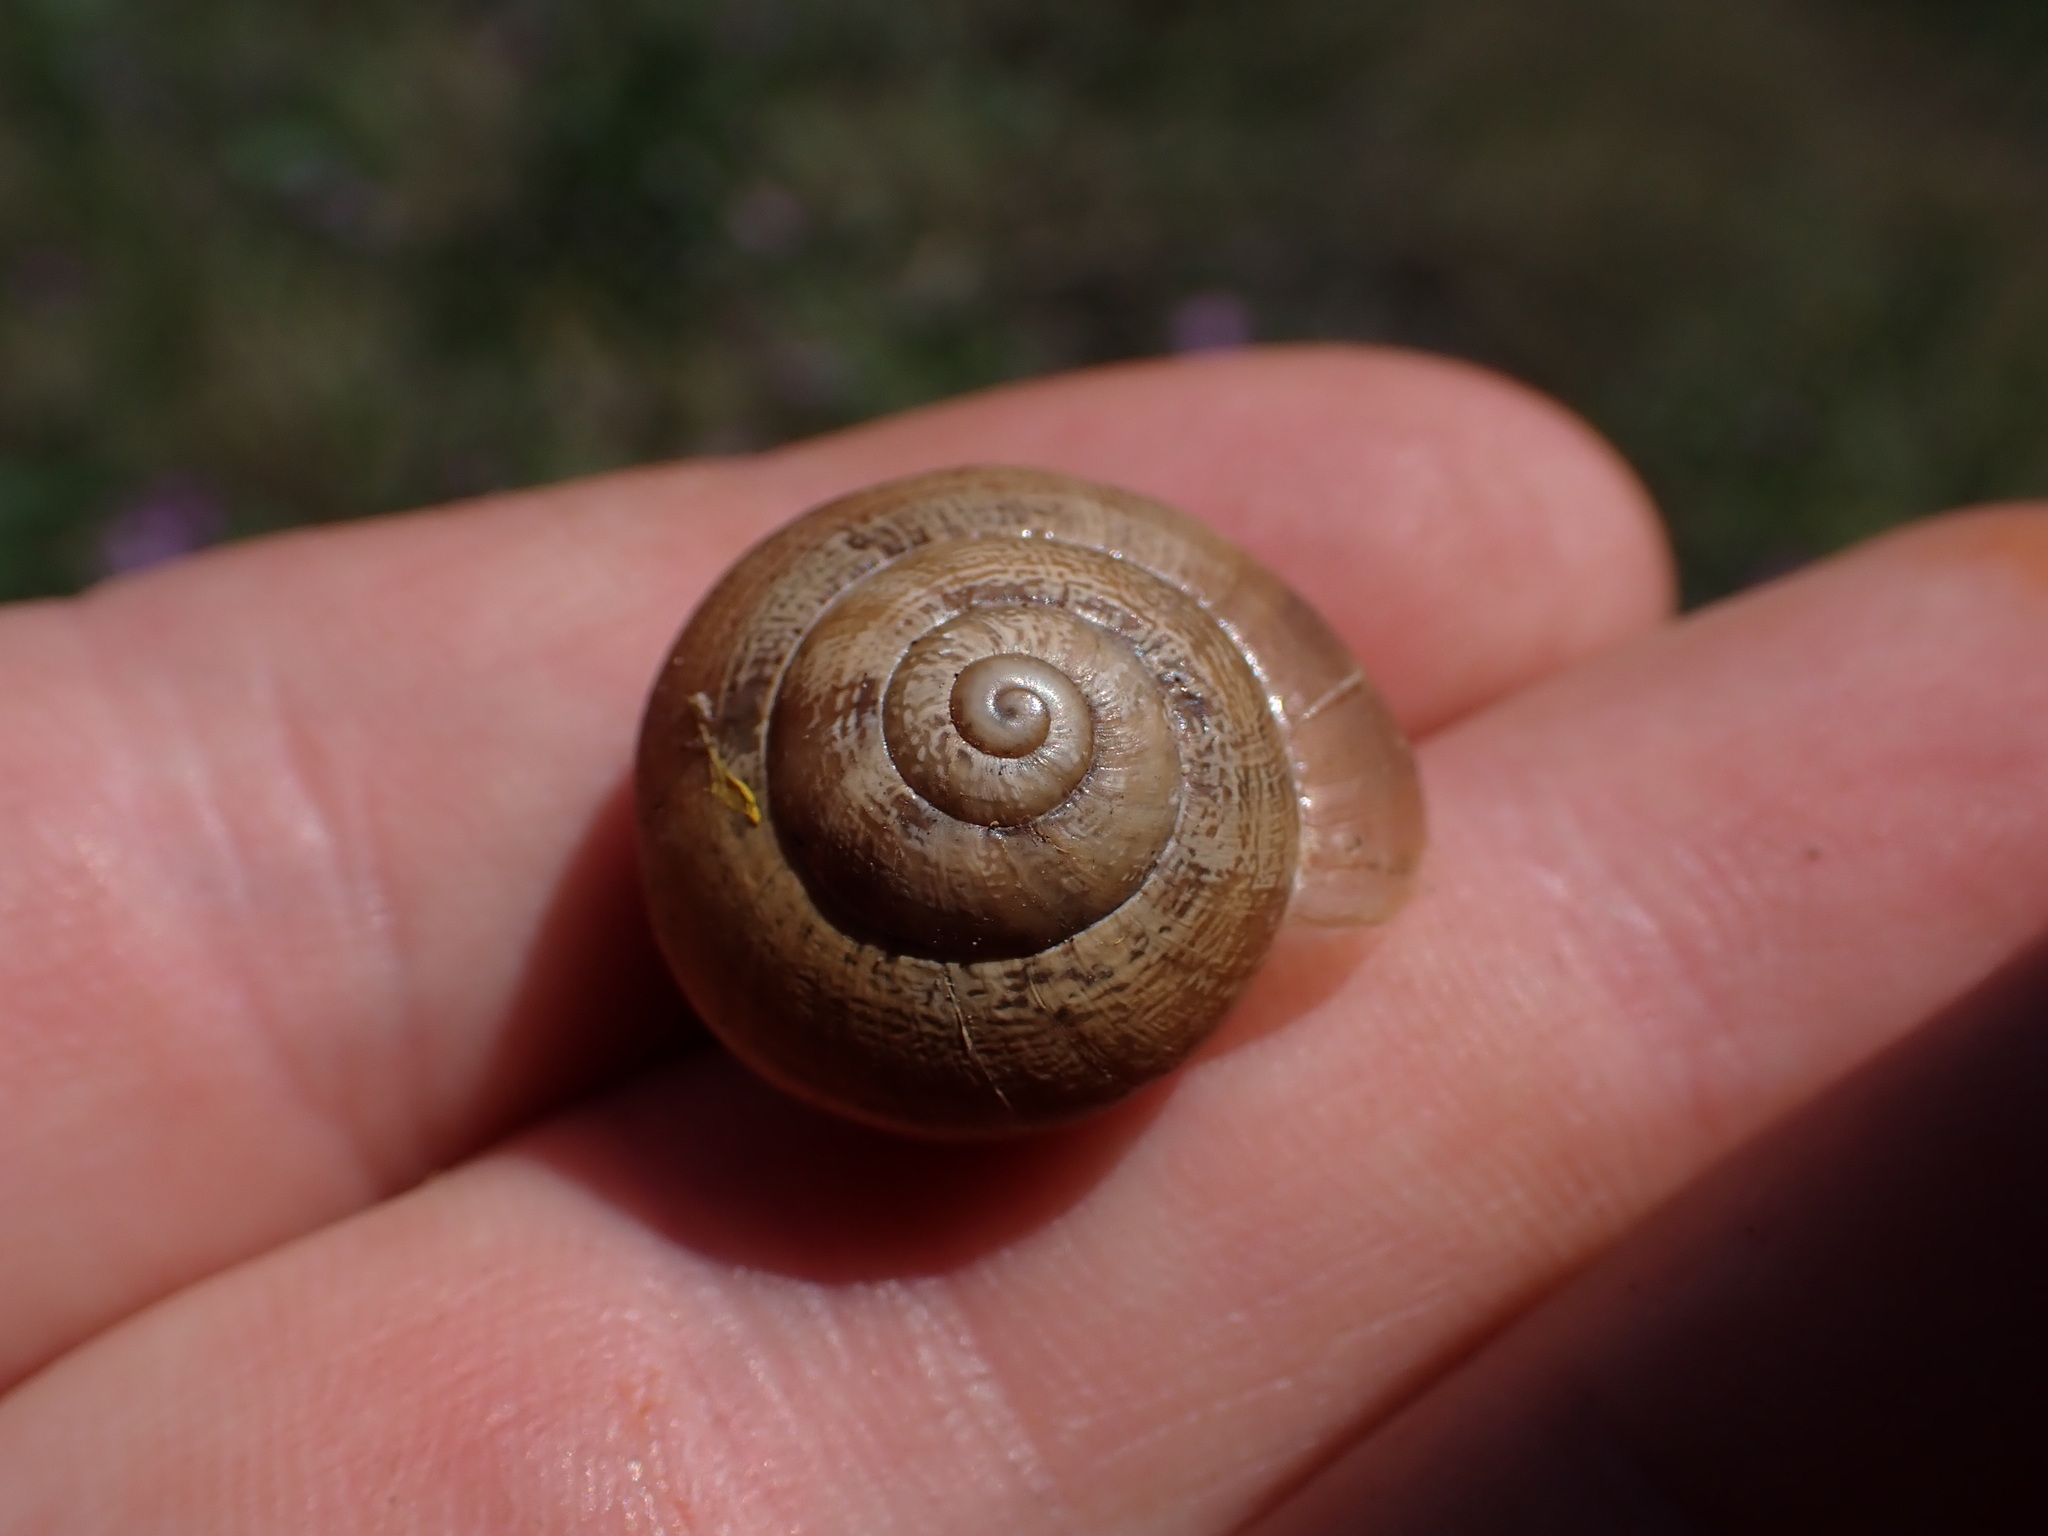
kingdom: Animalia
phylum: Mollusca
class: Gastropoda
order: Stylommatophora
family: Helicidae
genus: Eobania
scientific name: Eobania vermiculata
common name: Chocolateband snail
